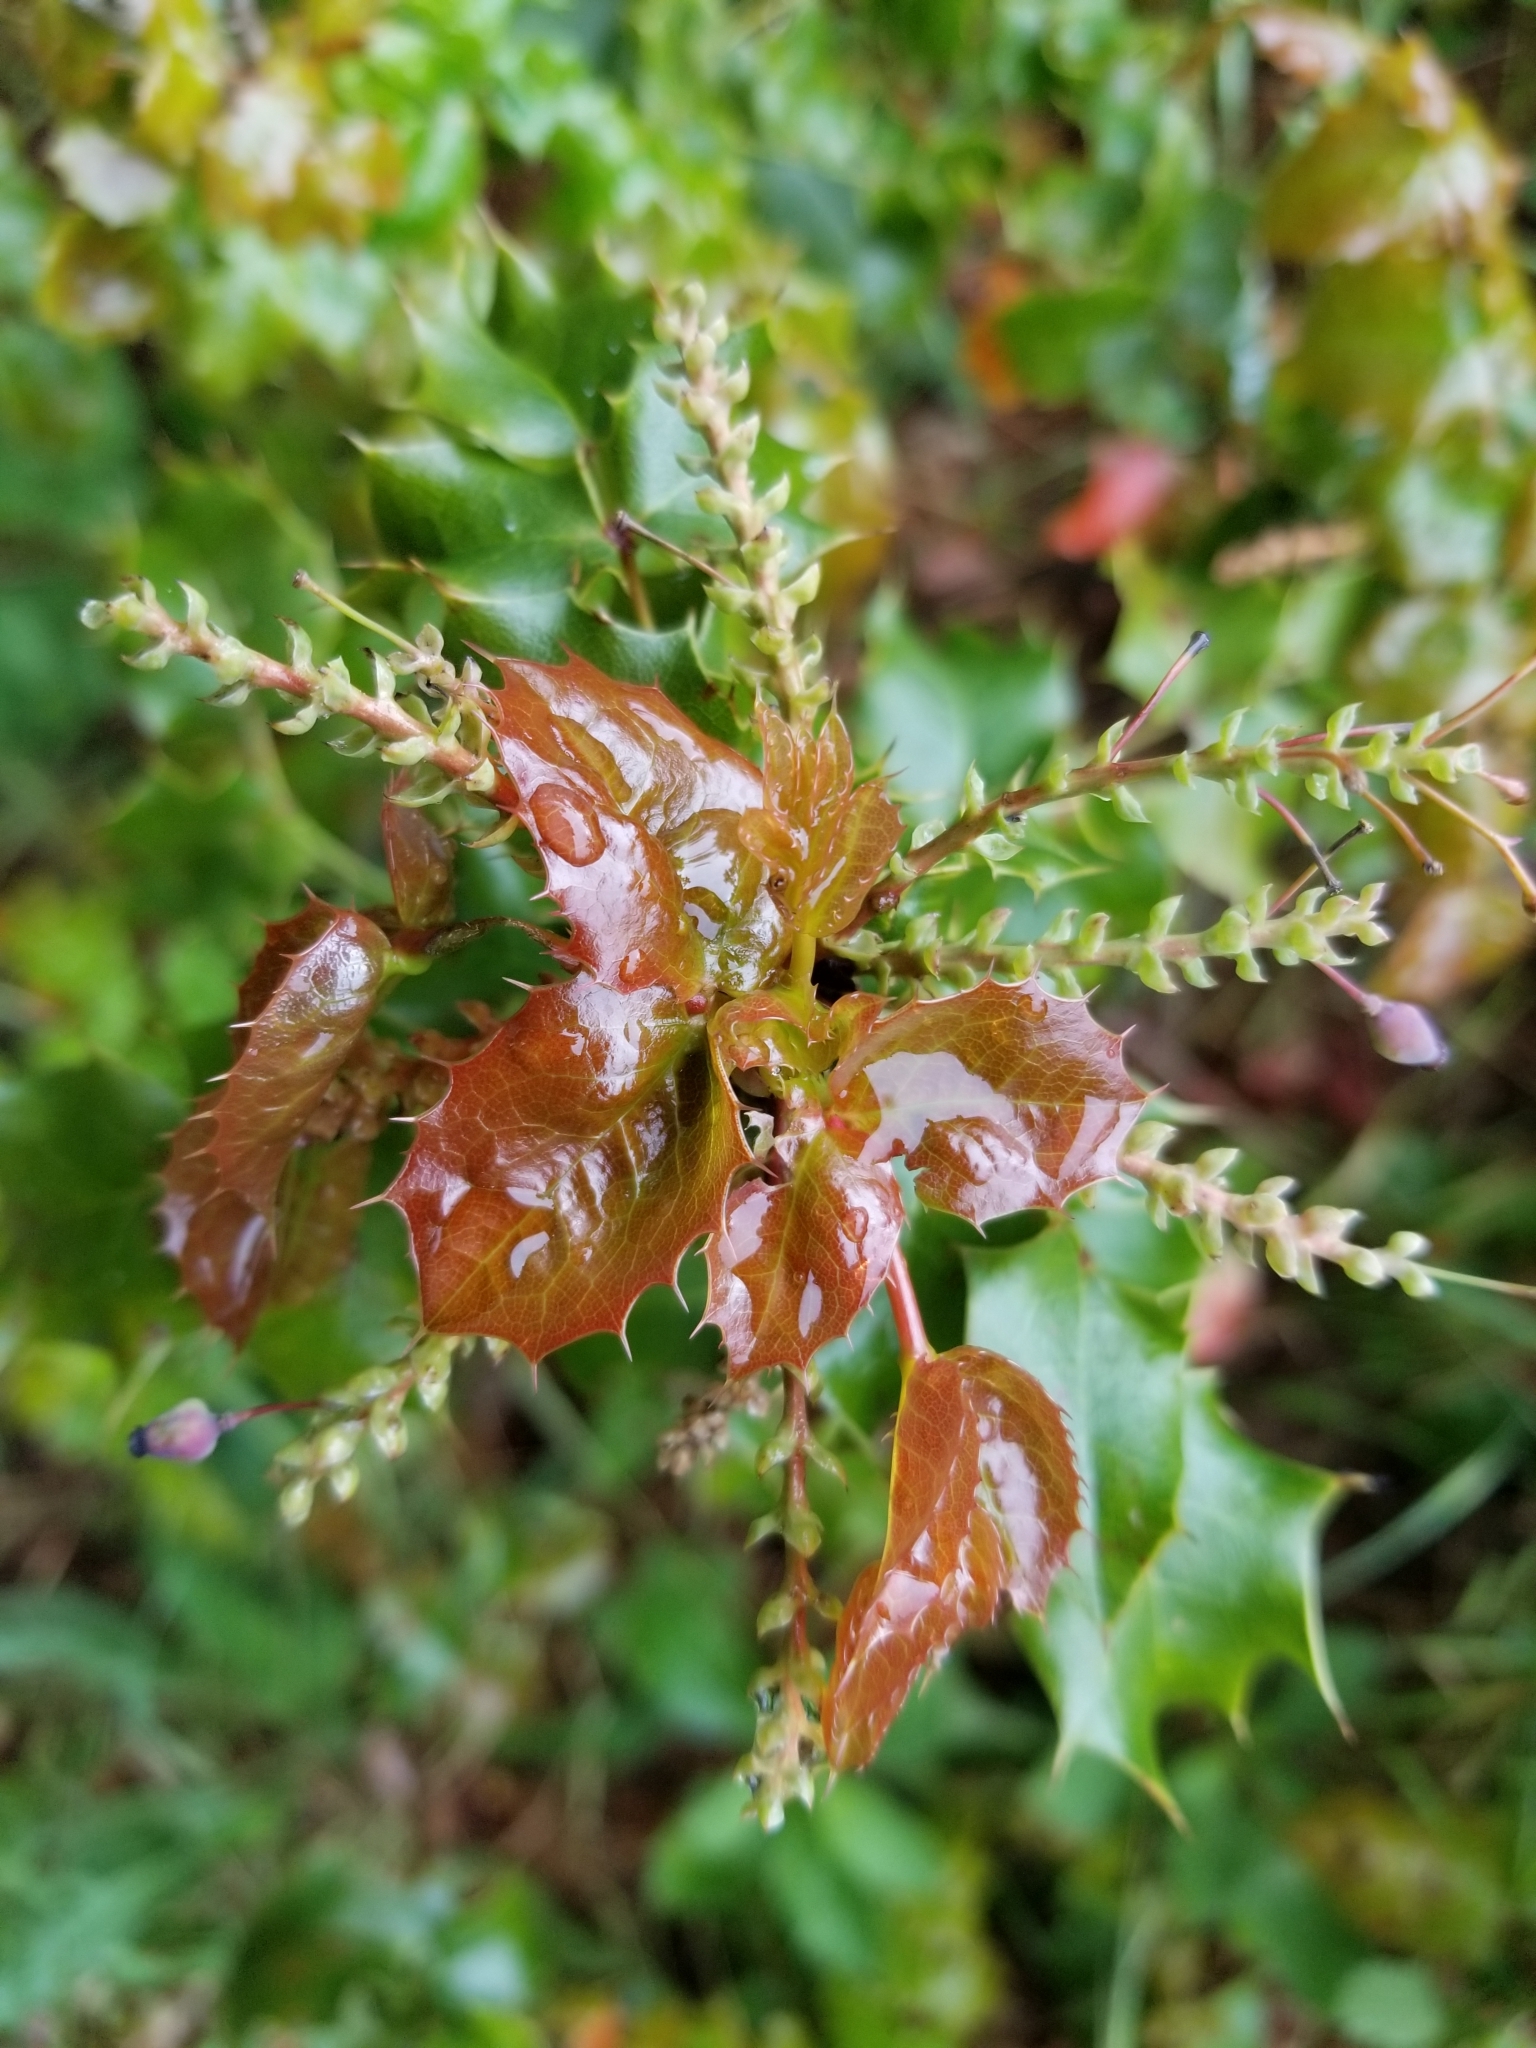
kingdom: Plantae
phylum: Tracheophyta
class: Magnoliopsida
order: Ranunculales
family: Berberidaceae
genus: Mahonia
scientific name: Mahonia
